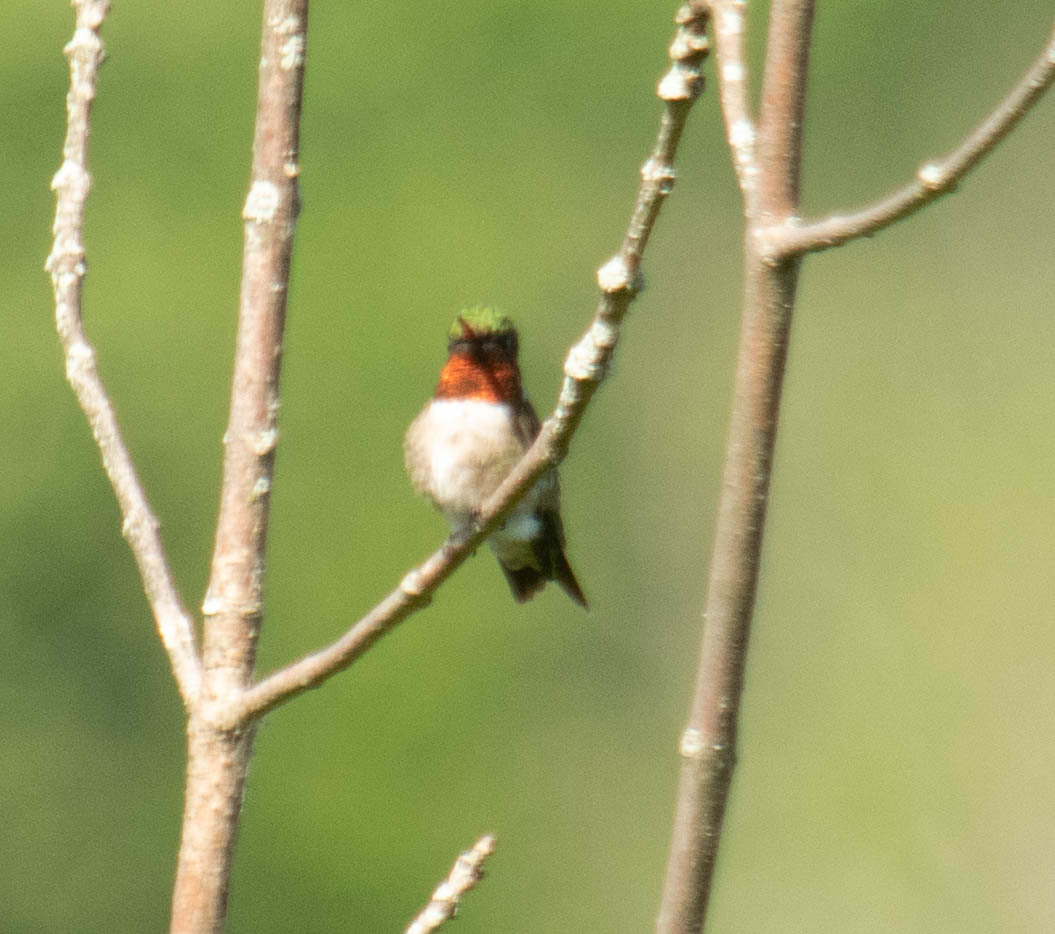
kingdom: Animalia
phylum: Chordata
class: Aves
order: Apodiformes
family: Trochilidae
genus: Archilochus
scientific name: Archilochus colubris
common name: Ruby-throated hummingbird
